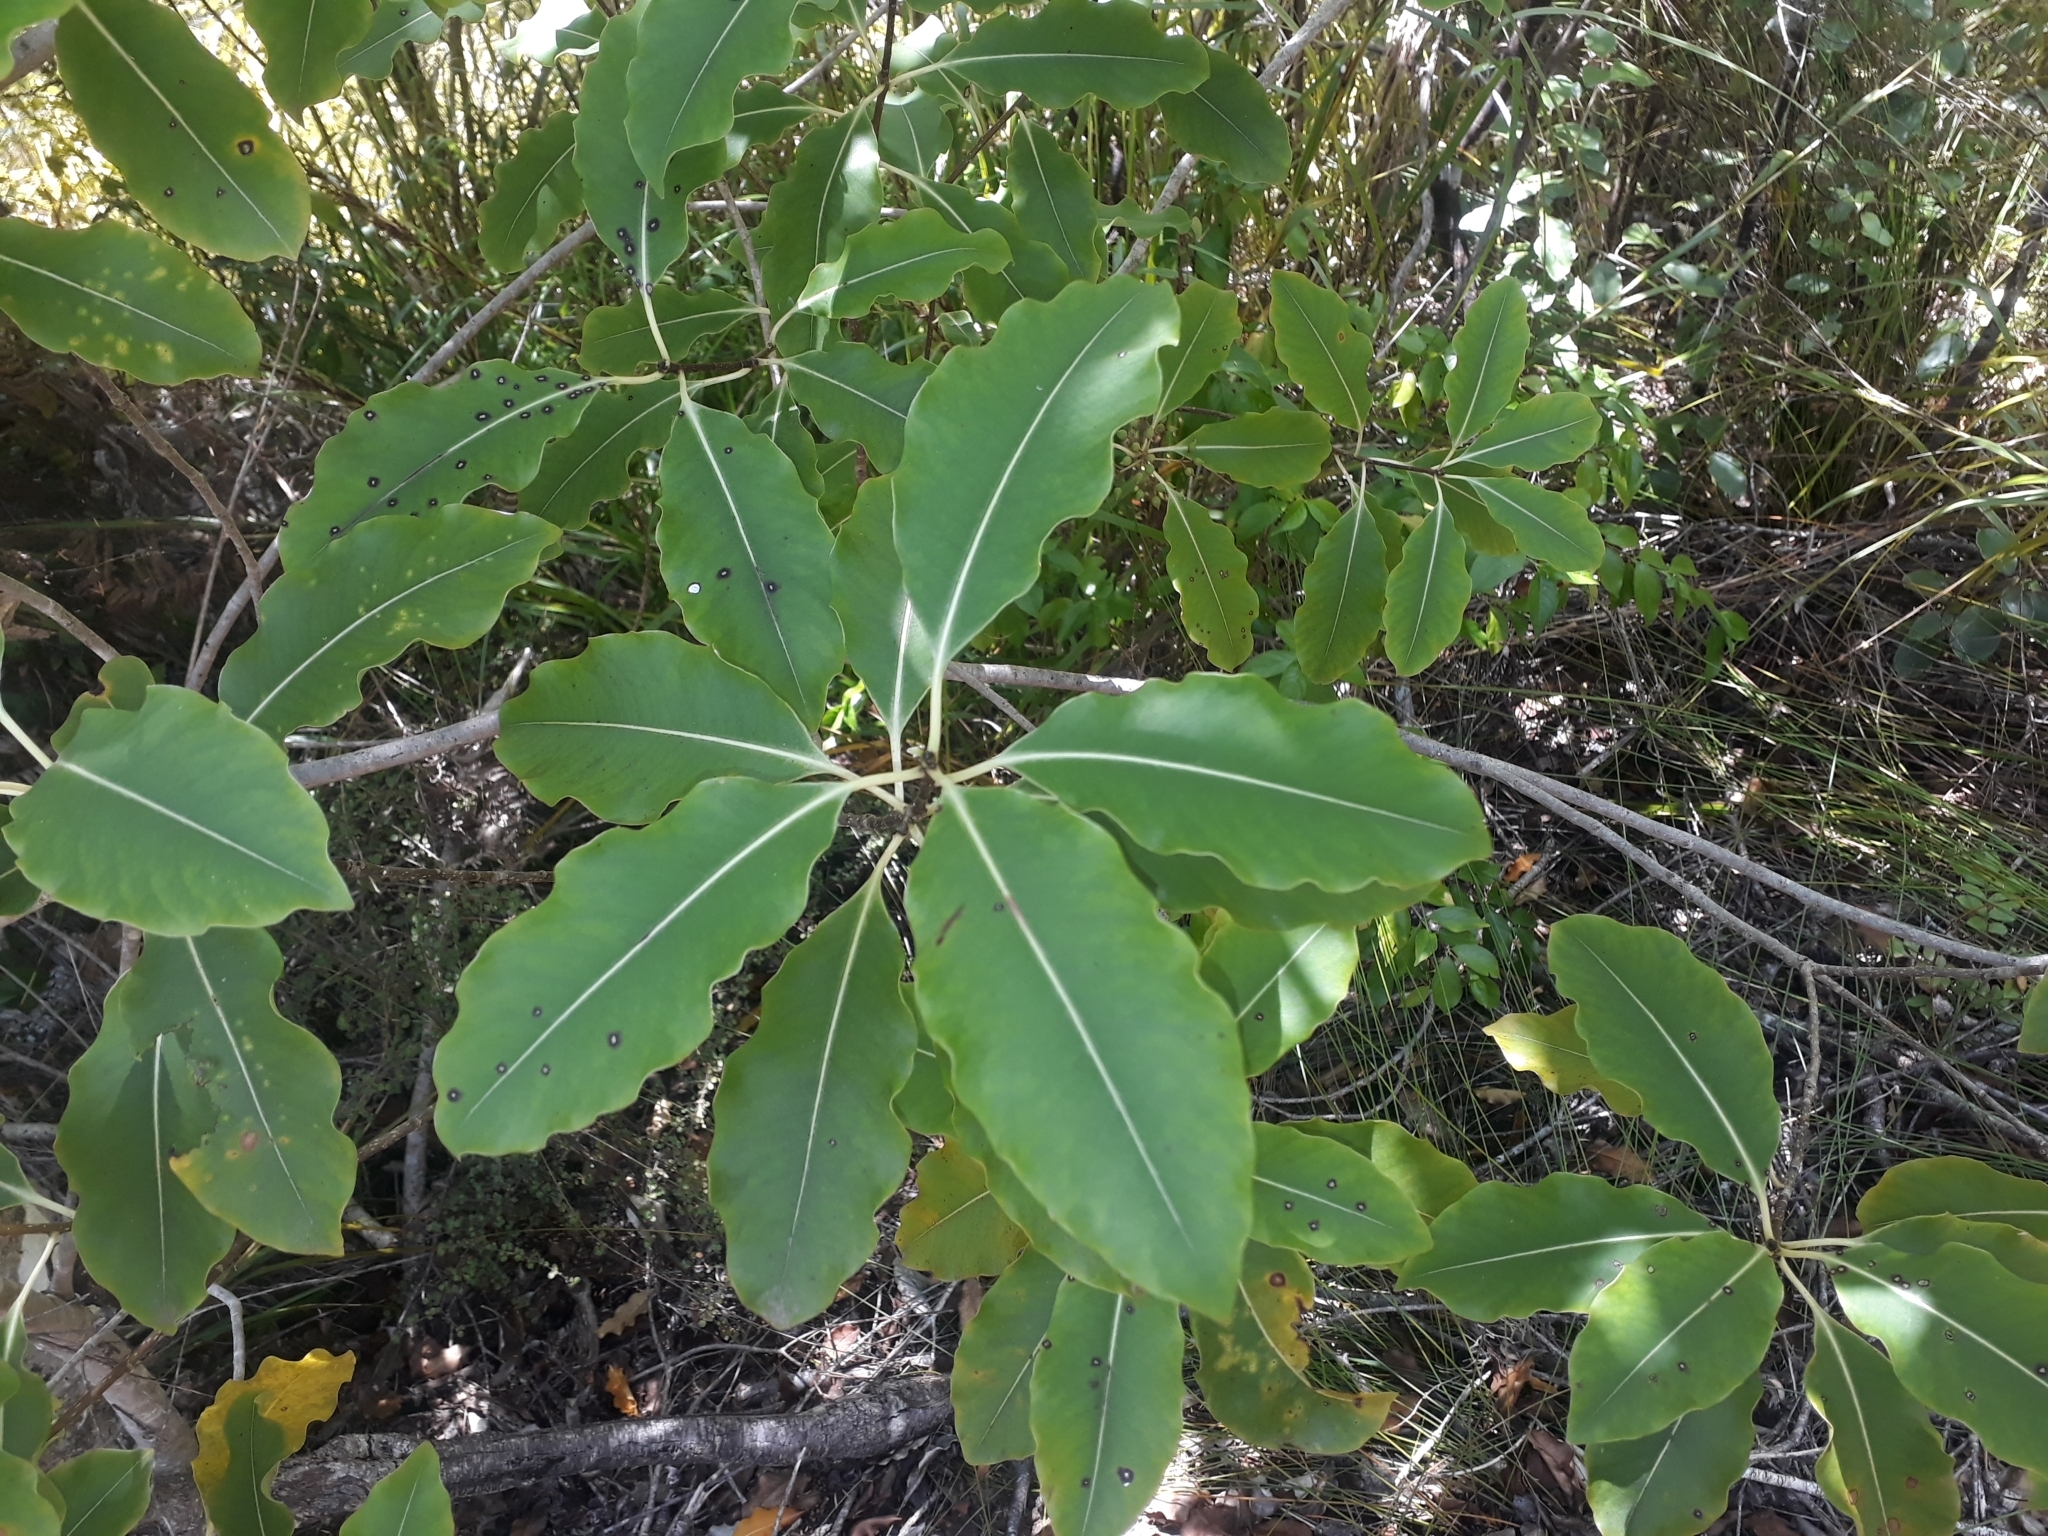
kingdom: Plantae
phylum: Tracheophyta
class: Magnoliopsida
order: Apiales
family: Pittosporaceae
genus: Pittosporum
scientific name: Pittosporum eugenioides
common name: Lemonwood
